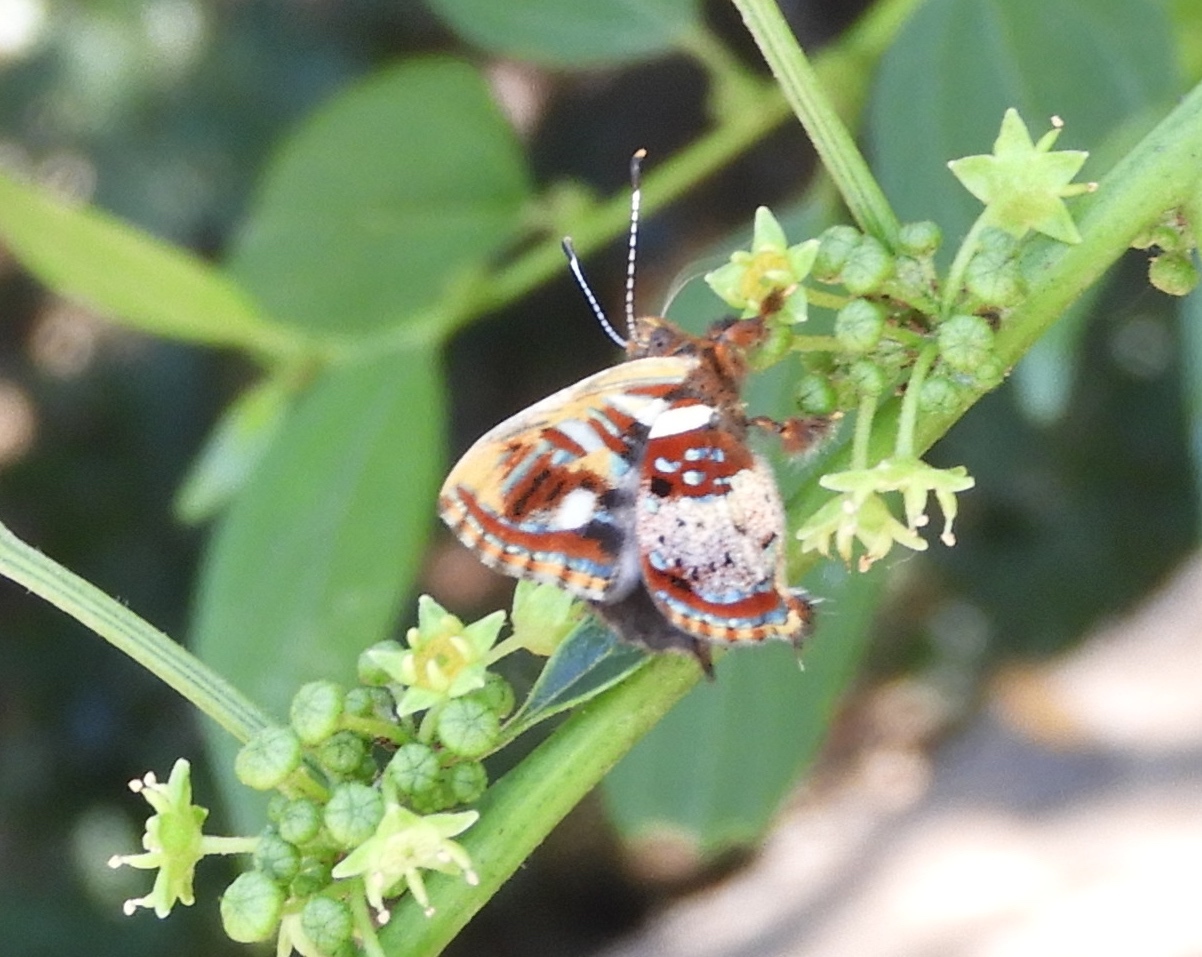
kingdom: Animalia
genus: Anteros
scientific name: Anteros carausius
